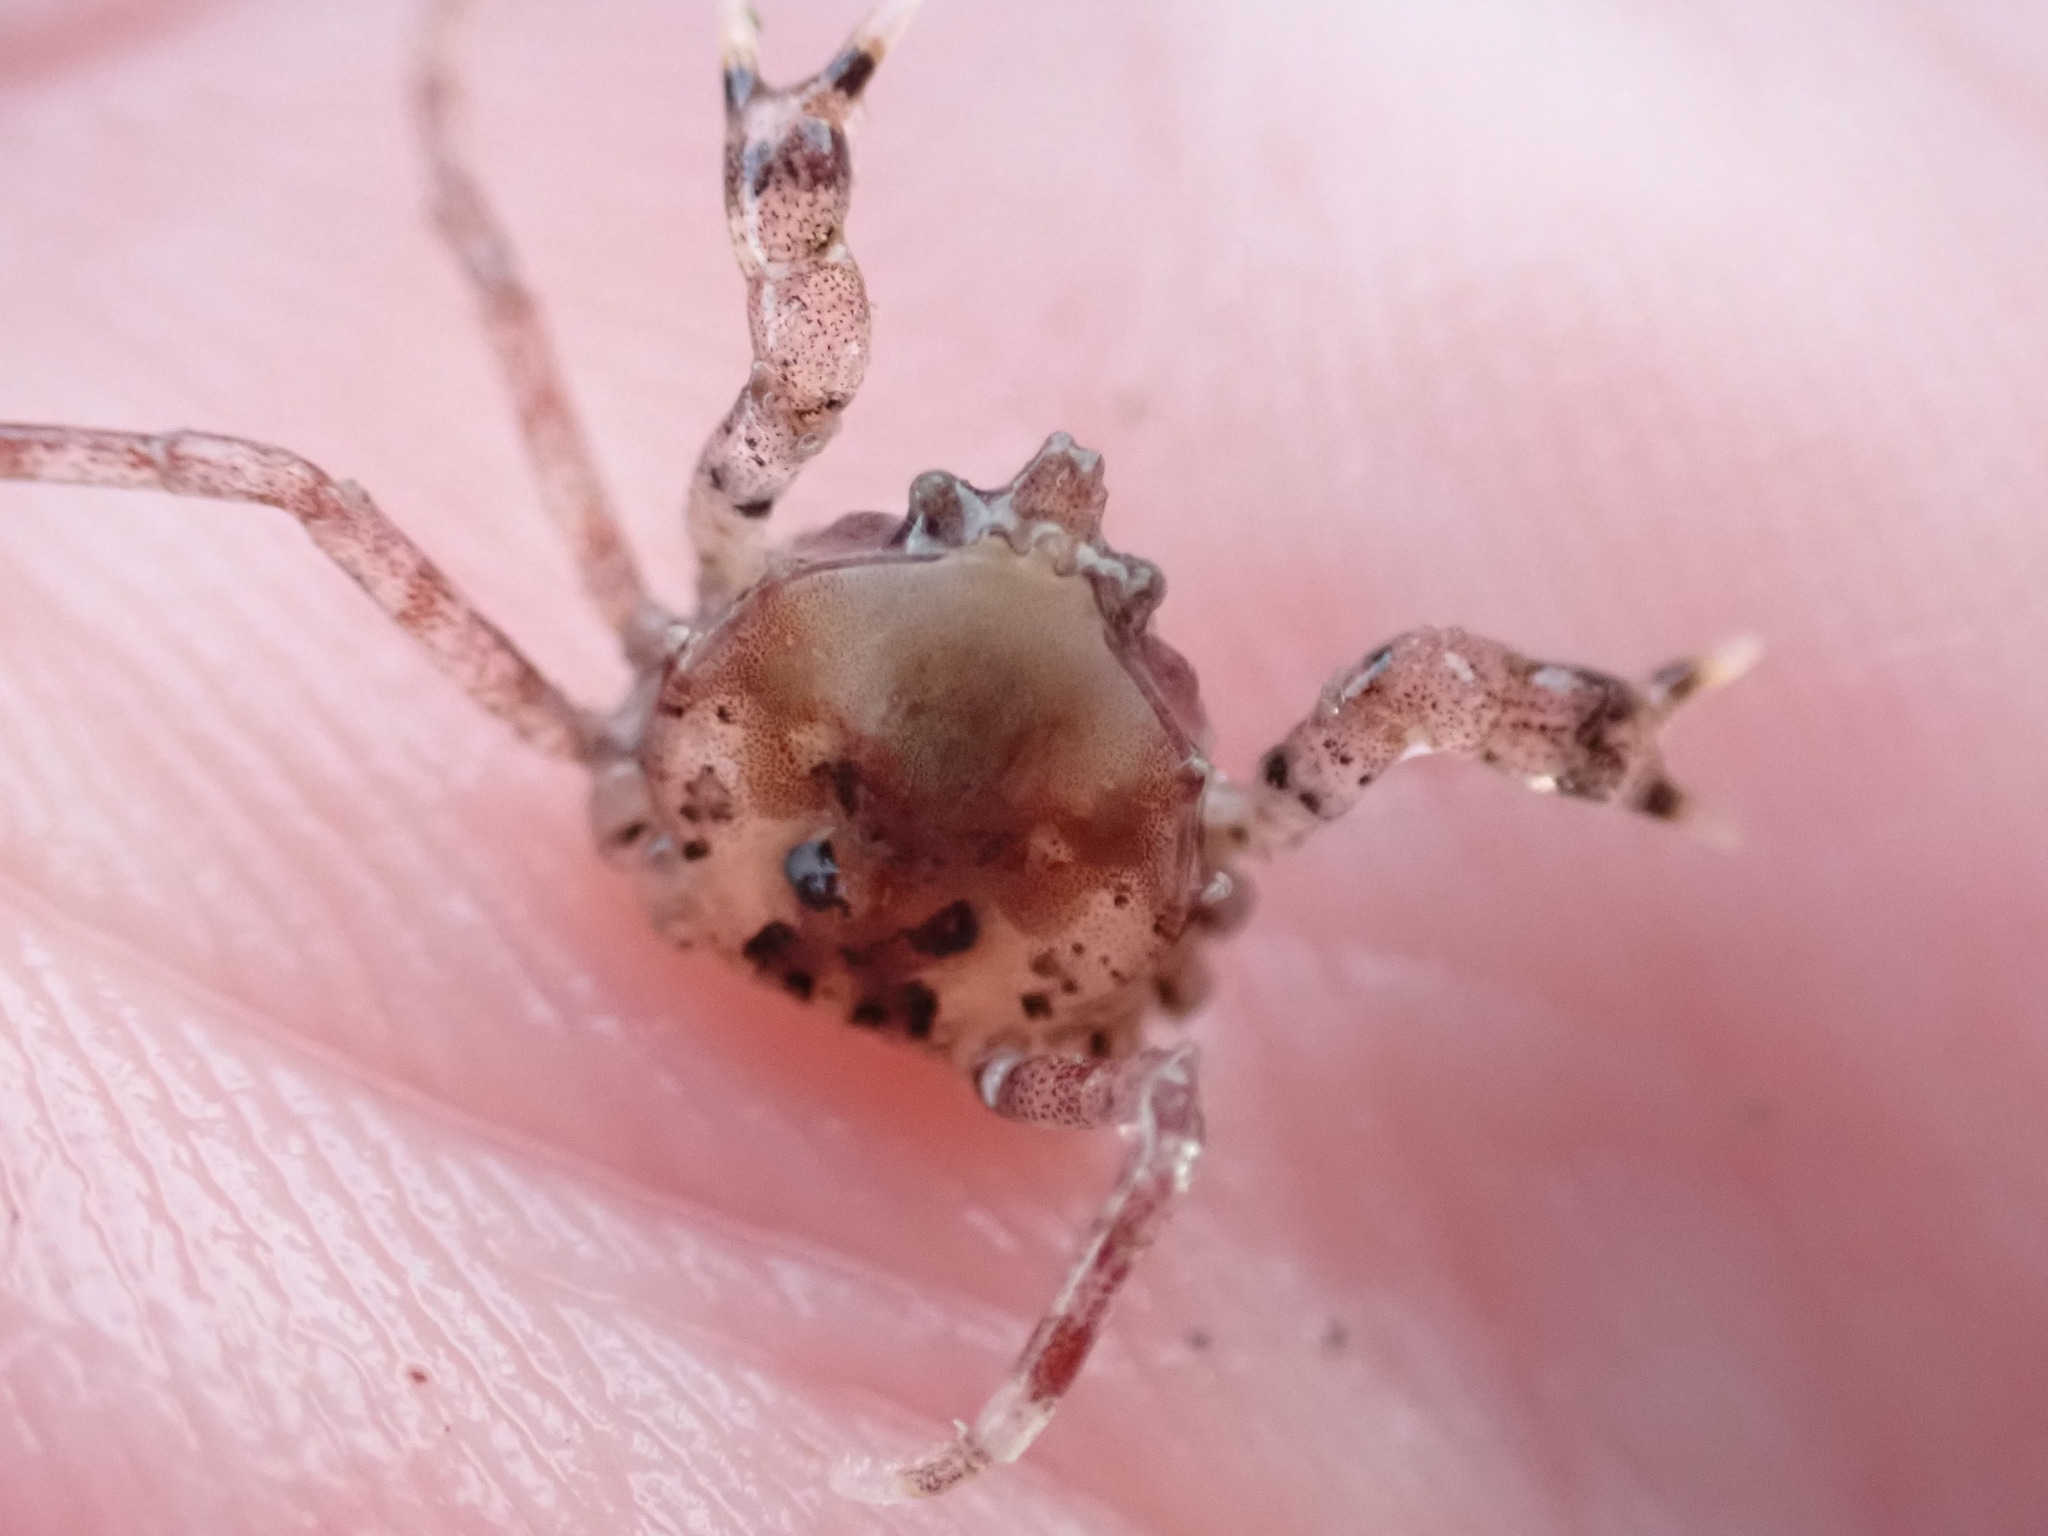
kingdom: Animalia
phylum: Arthropoda
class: Malacostraca
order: Decapoda
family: Hymenosomatidae
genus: Halicarcinus
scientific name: Halicarcinus cookii
